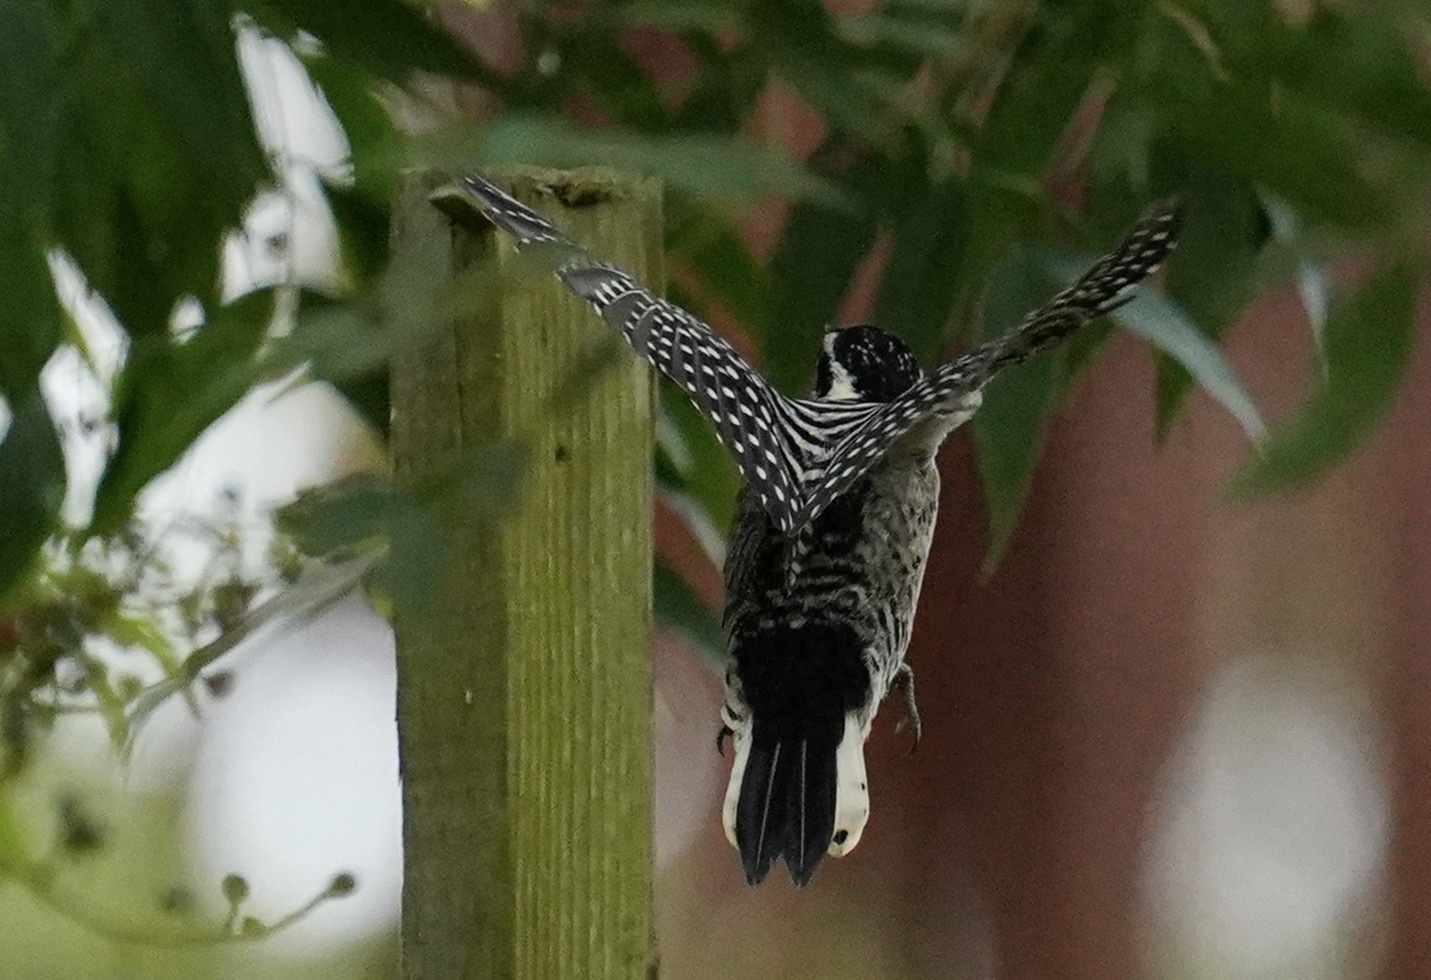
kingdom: Animalia
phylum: Chordata
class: Aves
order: Piciformes
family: Picidae
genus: Dryobates
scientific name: Dryobates nuttallii
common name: Nuttall's woodpecker
